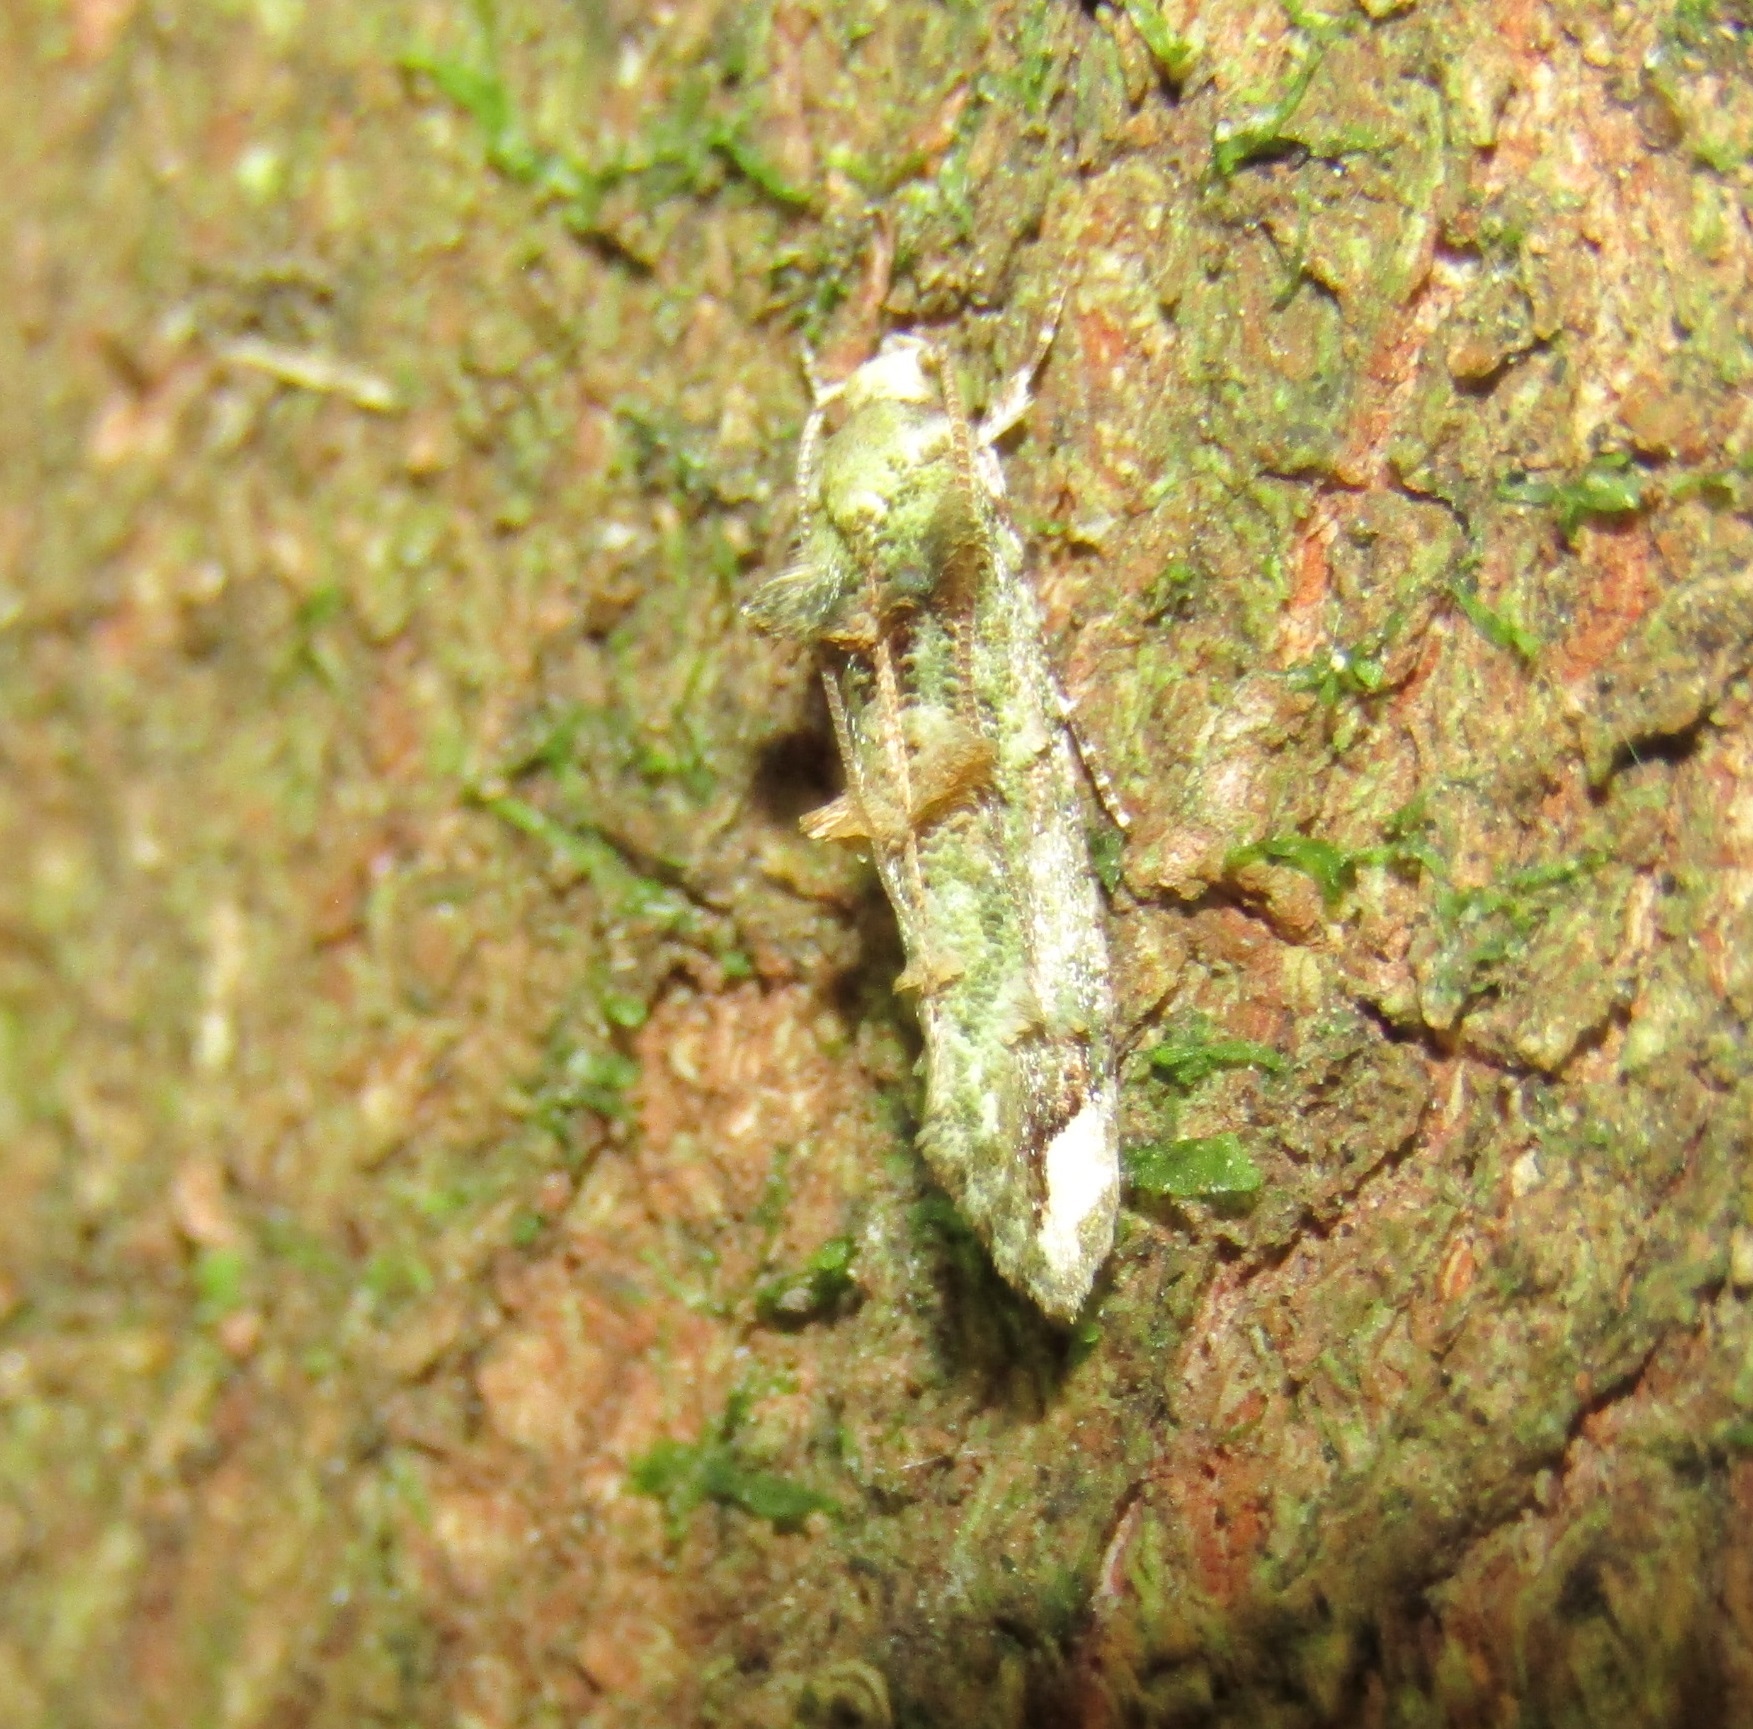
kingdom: Animalia
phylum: Arthropoda
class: Insecta
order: Lepidoptera
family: Tineidae
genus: Lysiphragma
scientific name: Lysiphragma mixochlora
